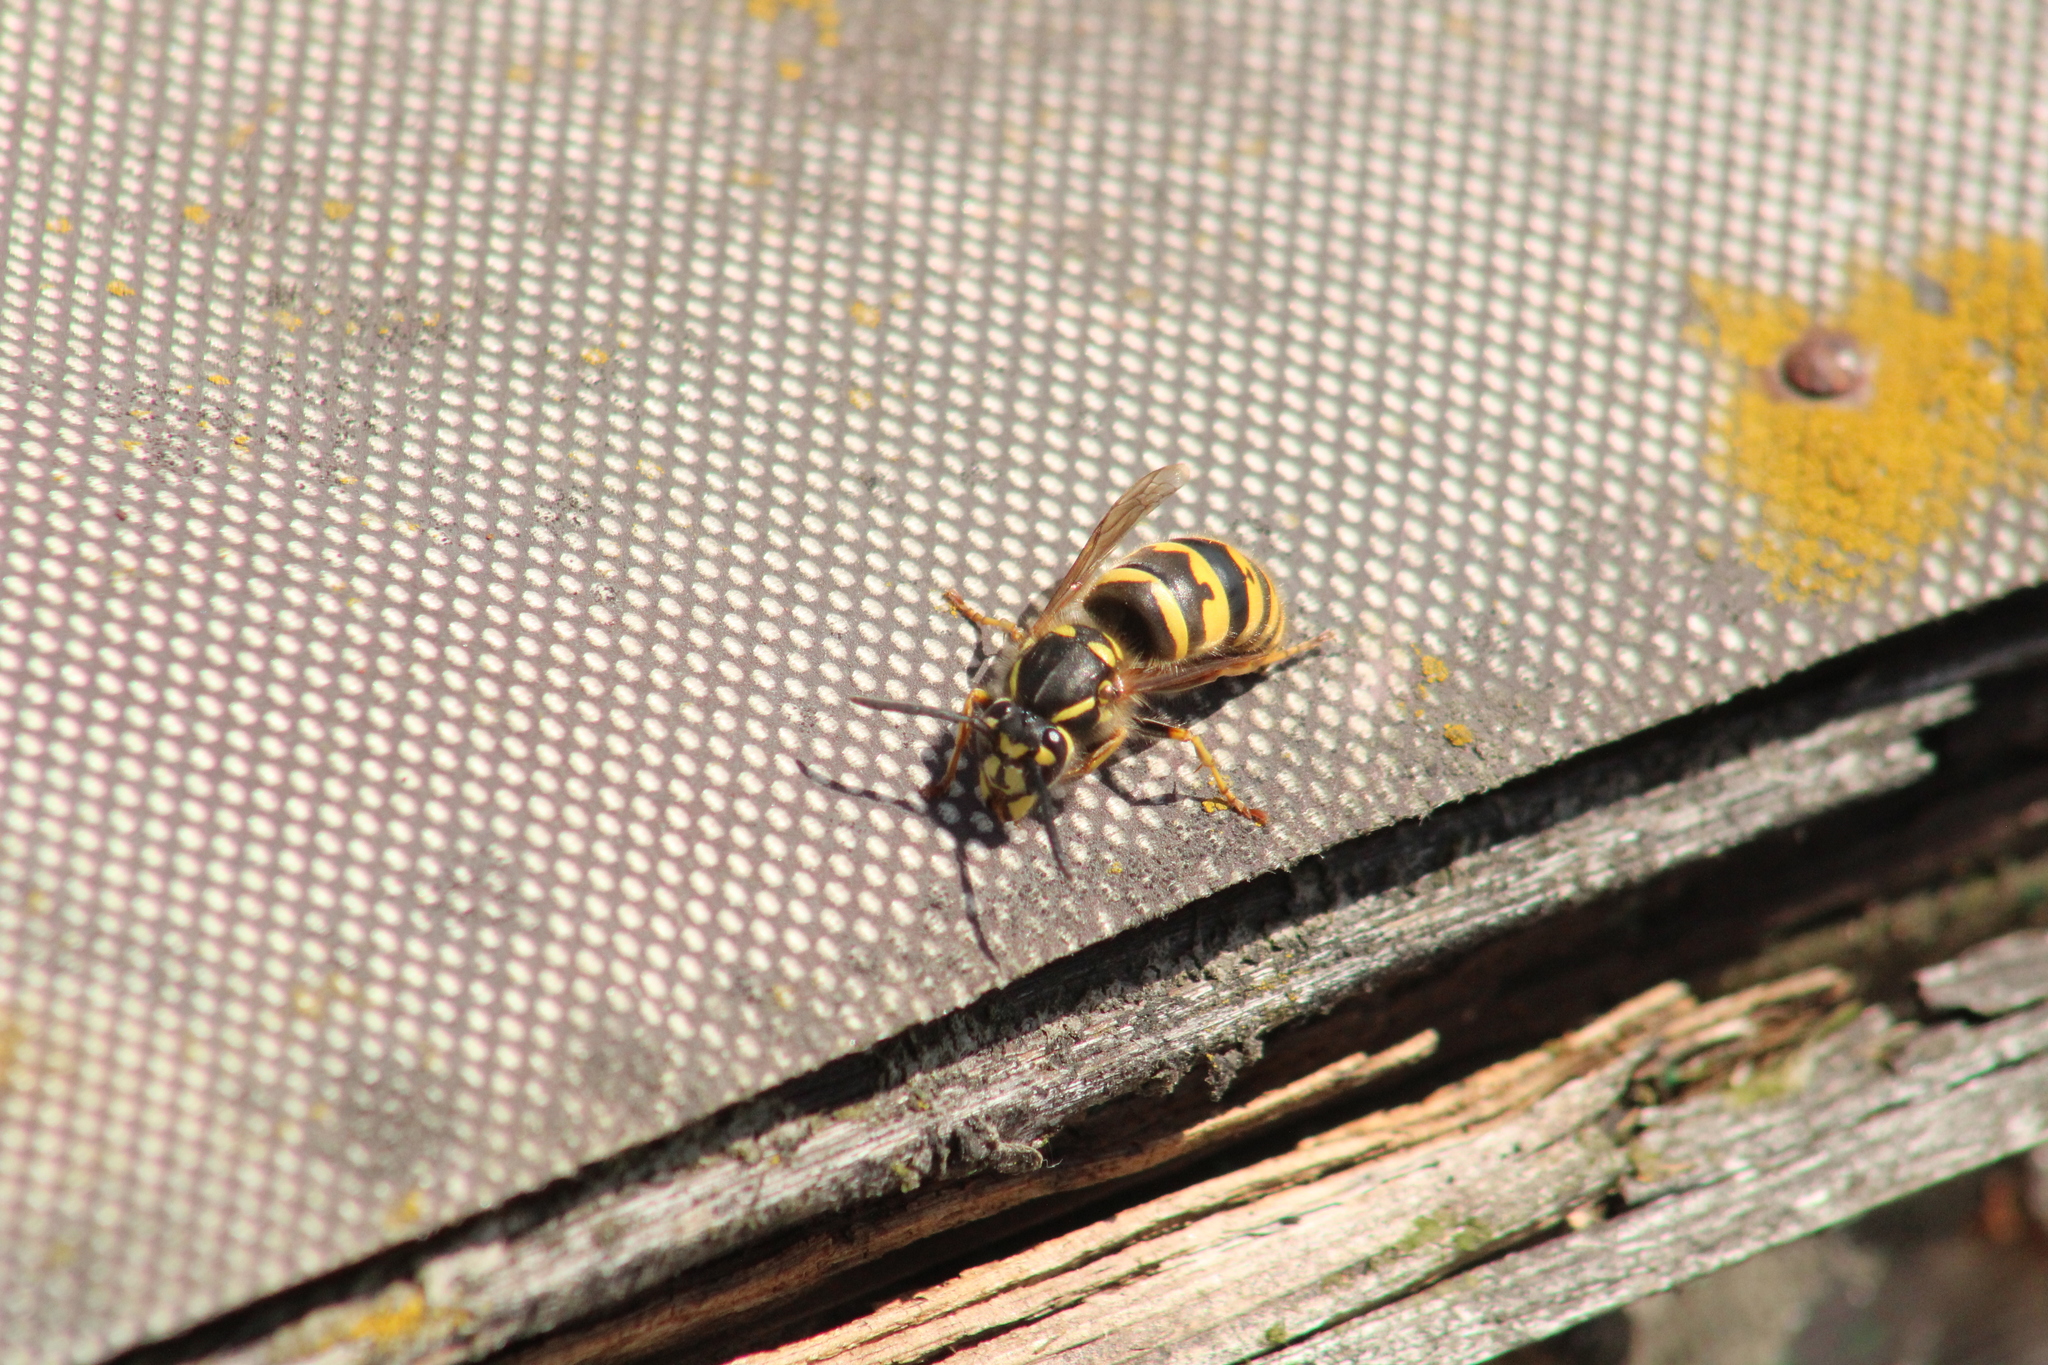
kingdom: Animalia
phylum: Arthropoda
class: Insecta
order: Hymenoptera
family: Vespidae
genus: Vespula
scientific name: Vespula vulgaris
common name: Common wasp
